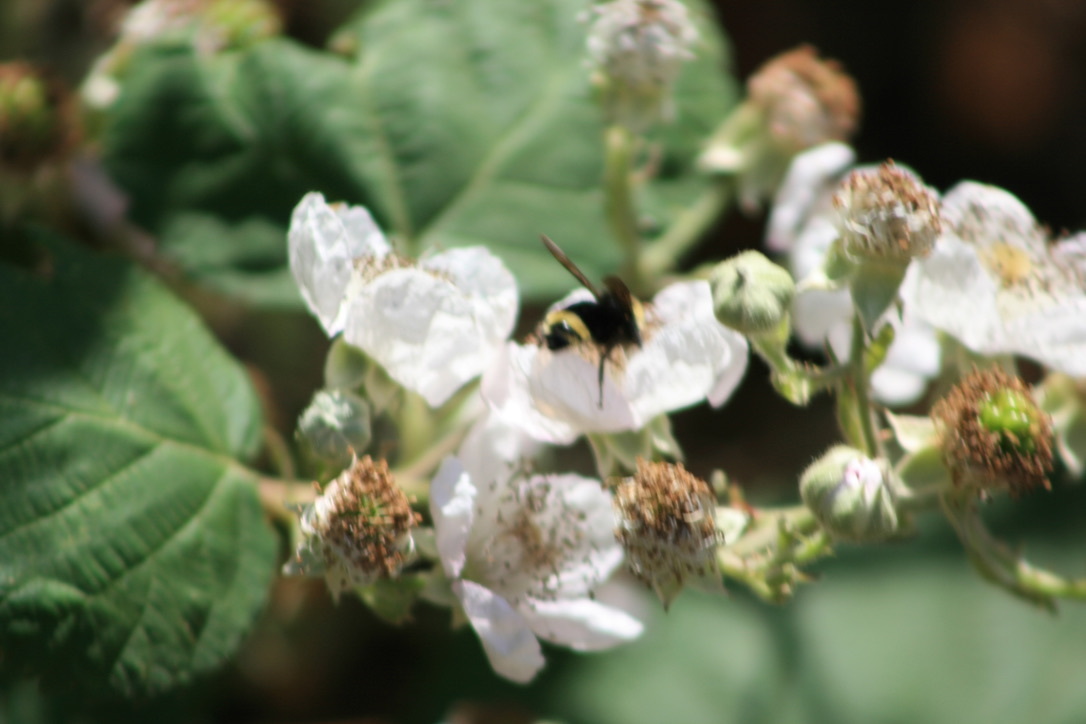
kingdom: Animalia
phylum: Arthropoda
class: Insecta
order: Hymenoptera
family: Apidae
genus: Bombus
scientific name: Bombus
